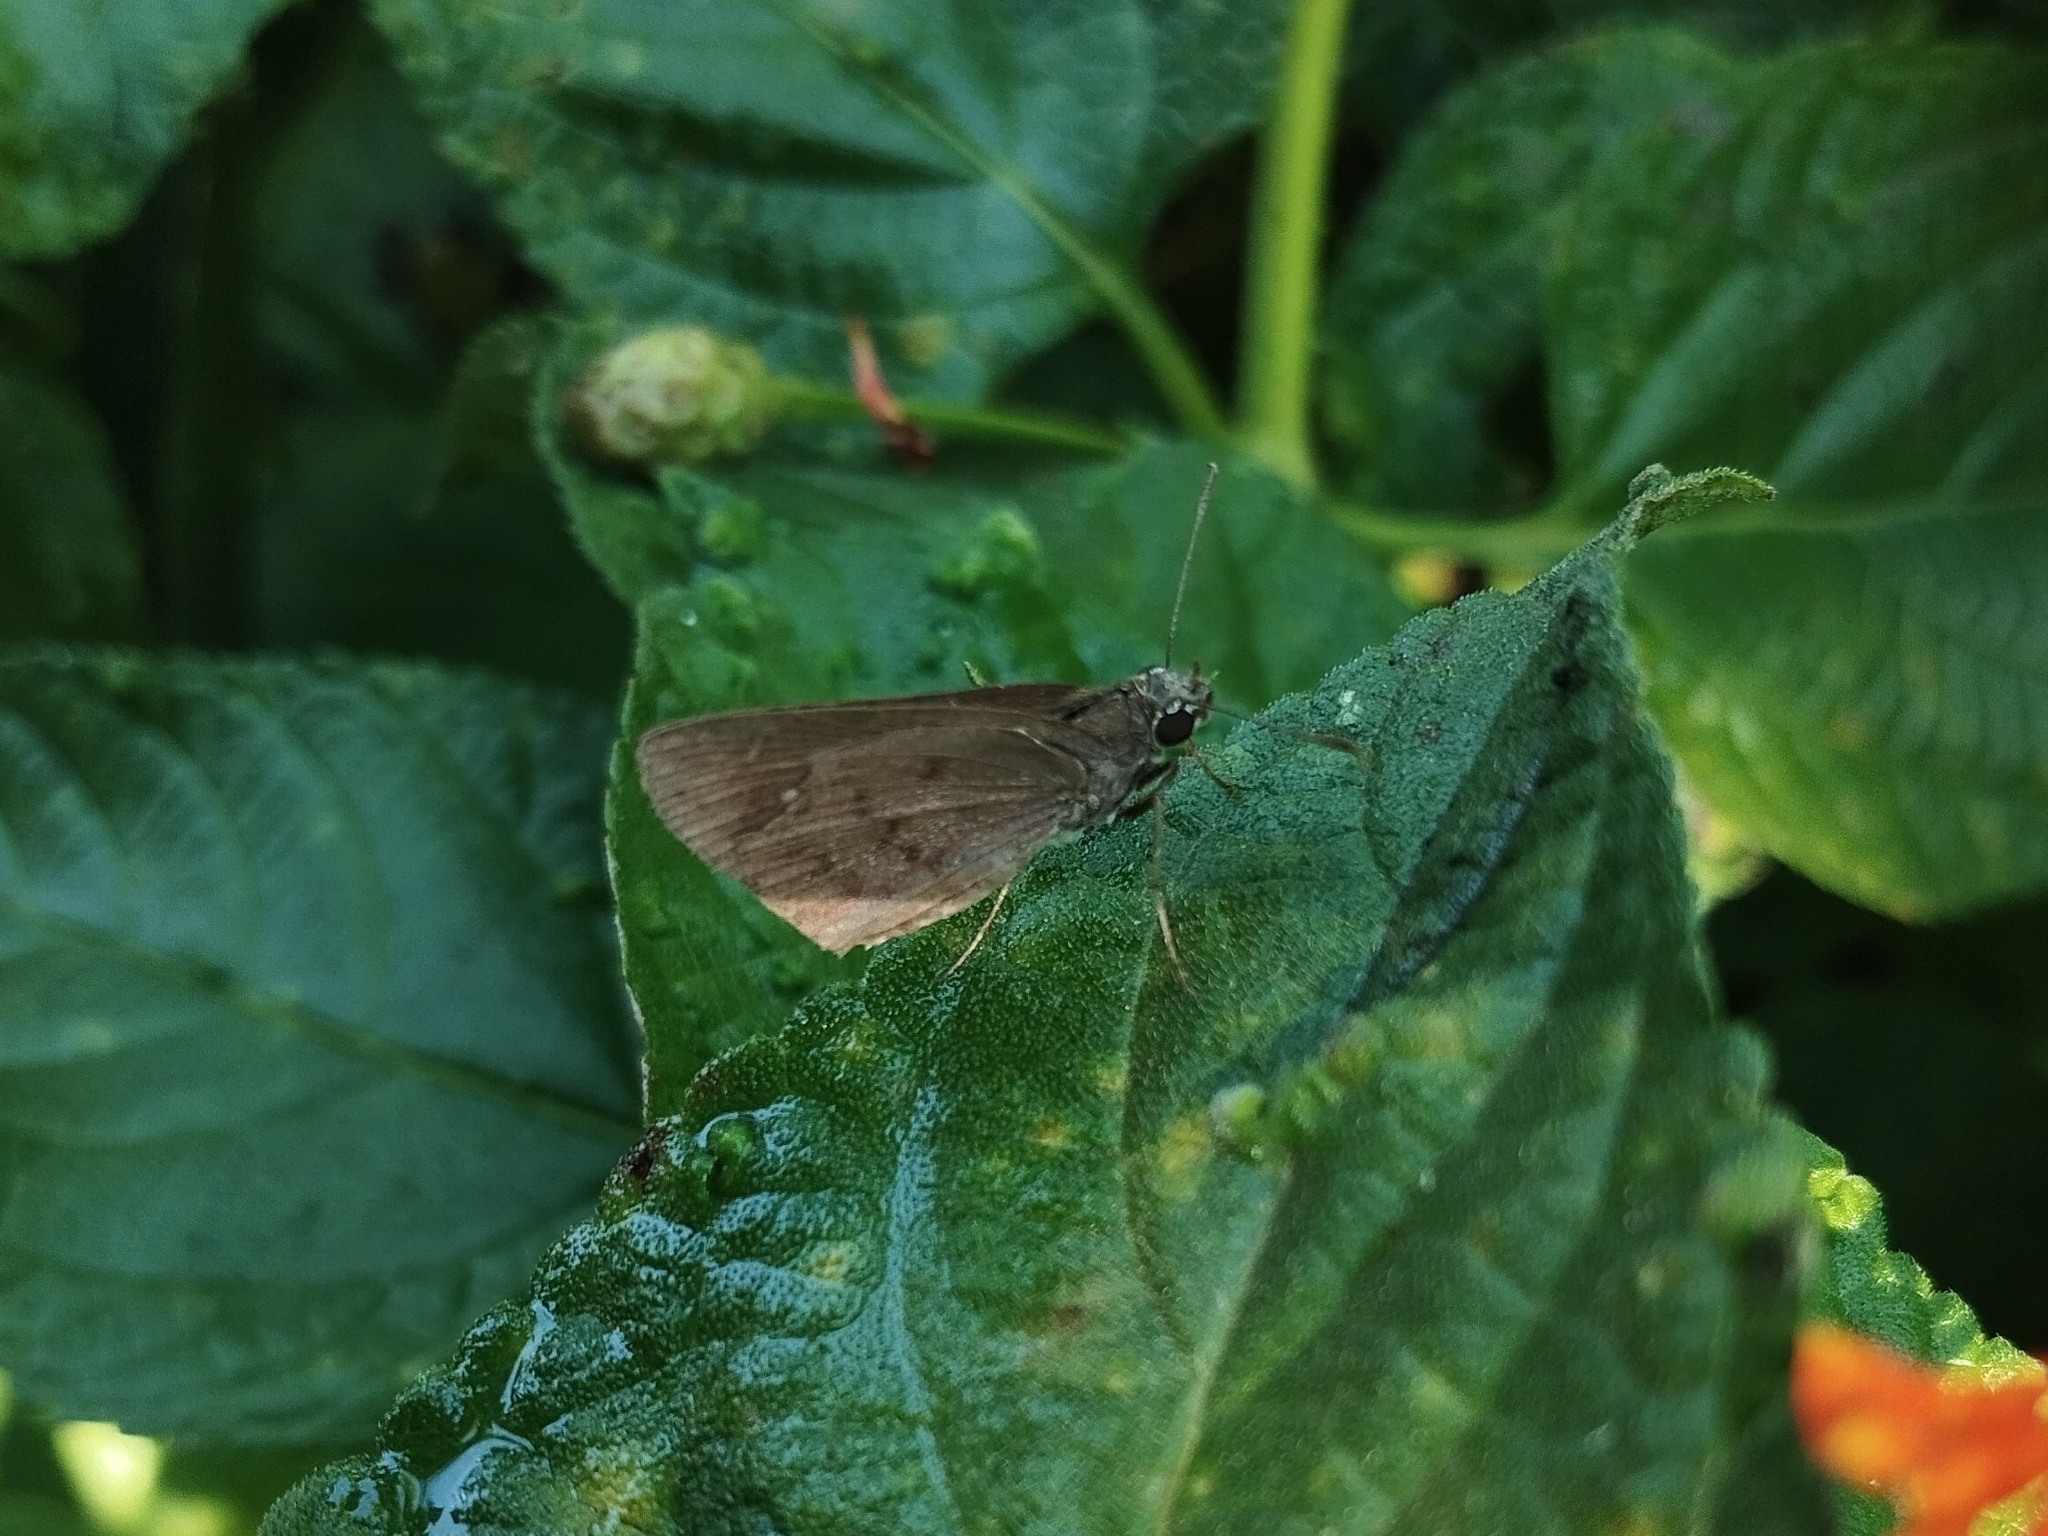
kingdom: Animalia
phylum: Arthropoda
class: Insecta
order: Lepidoptera
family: Hesperiidae
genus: Cymaenes
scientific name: Cymaenes gisca
